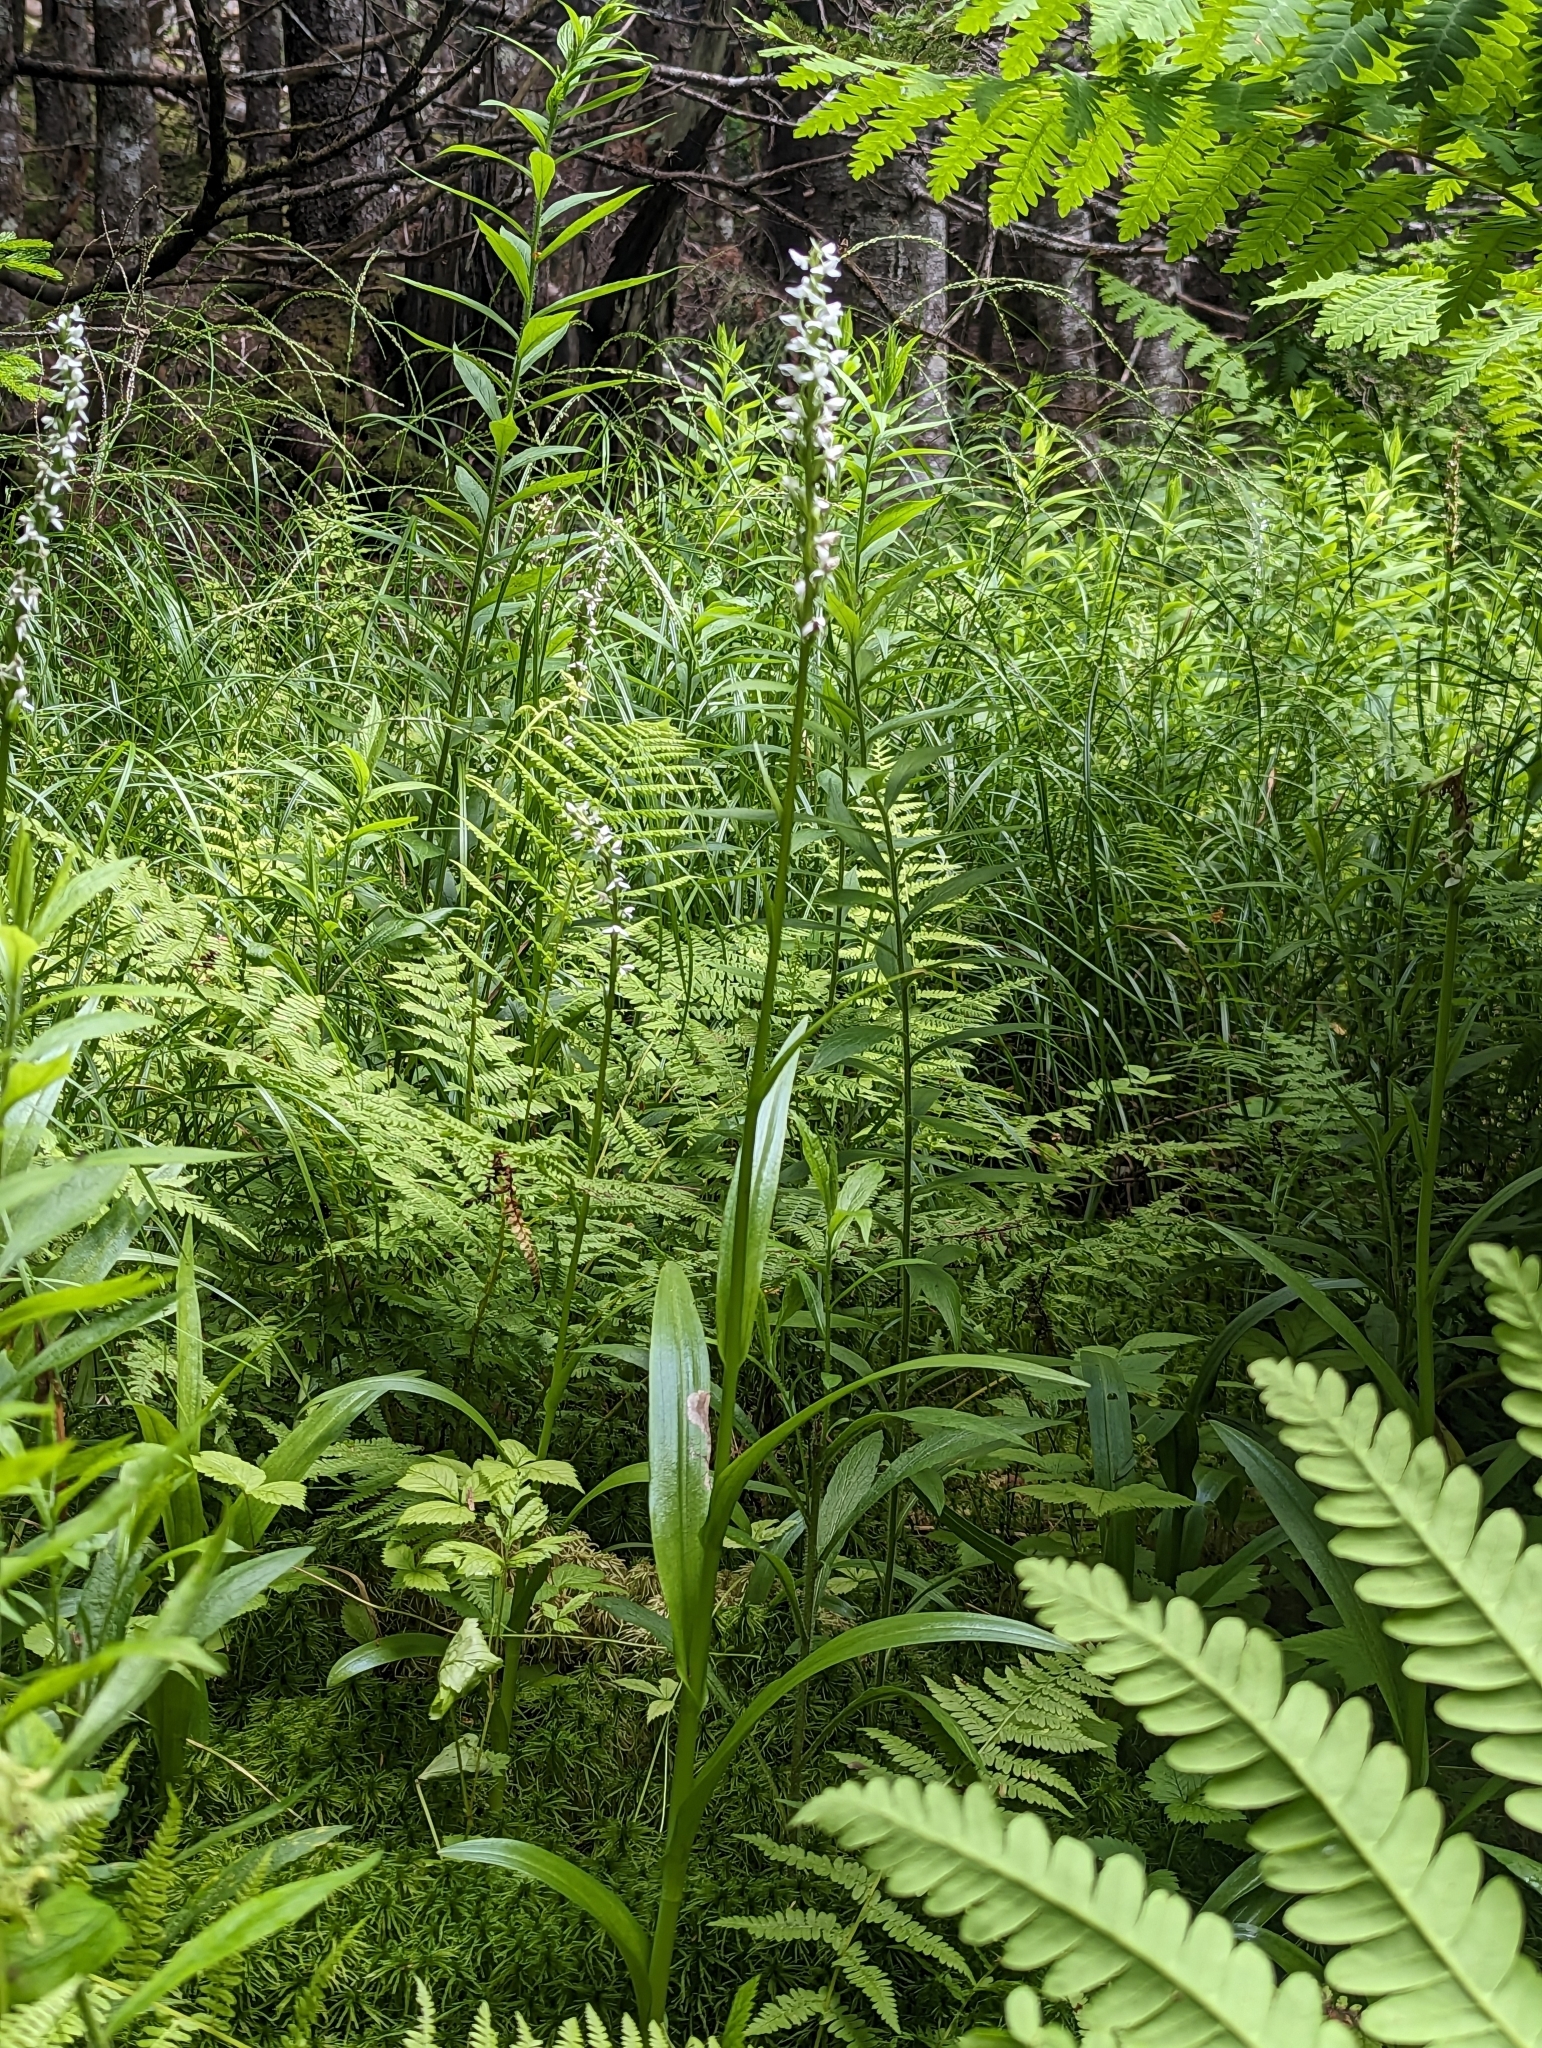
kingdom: Plantae
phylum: Tracheophyta
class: Liliopsida
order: Asparagales
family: Orchidaceae
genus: Platanthera
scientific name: Platanthera dilatata
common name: Bog candles
